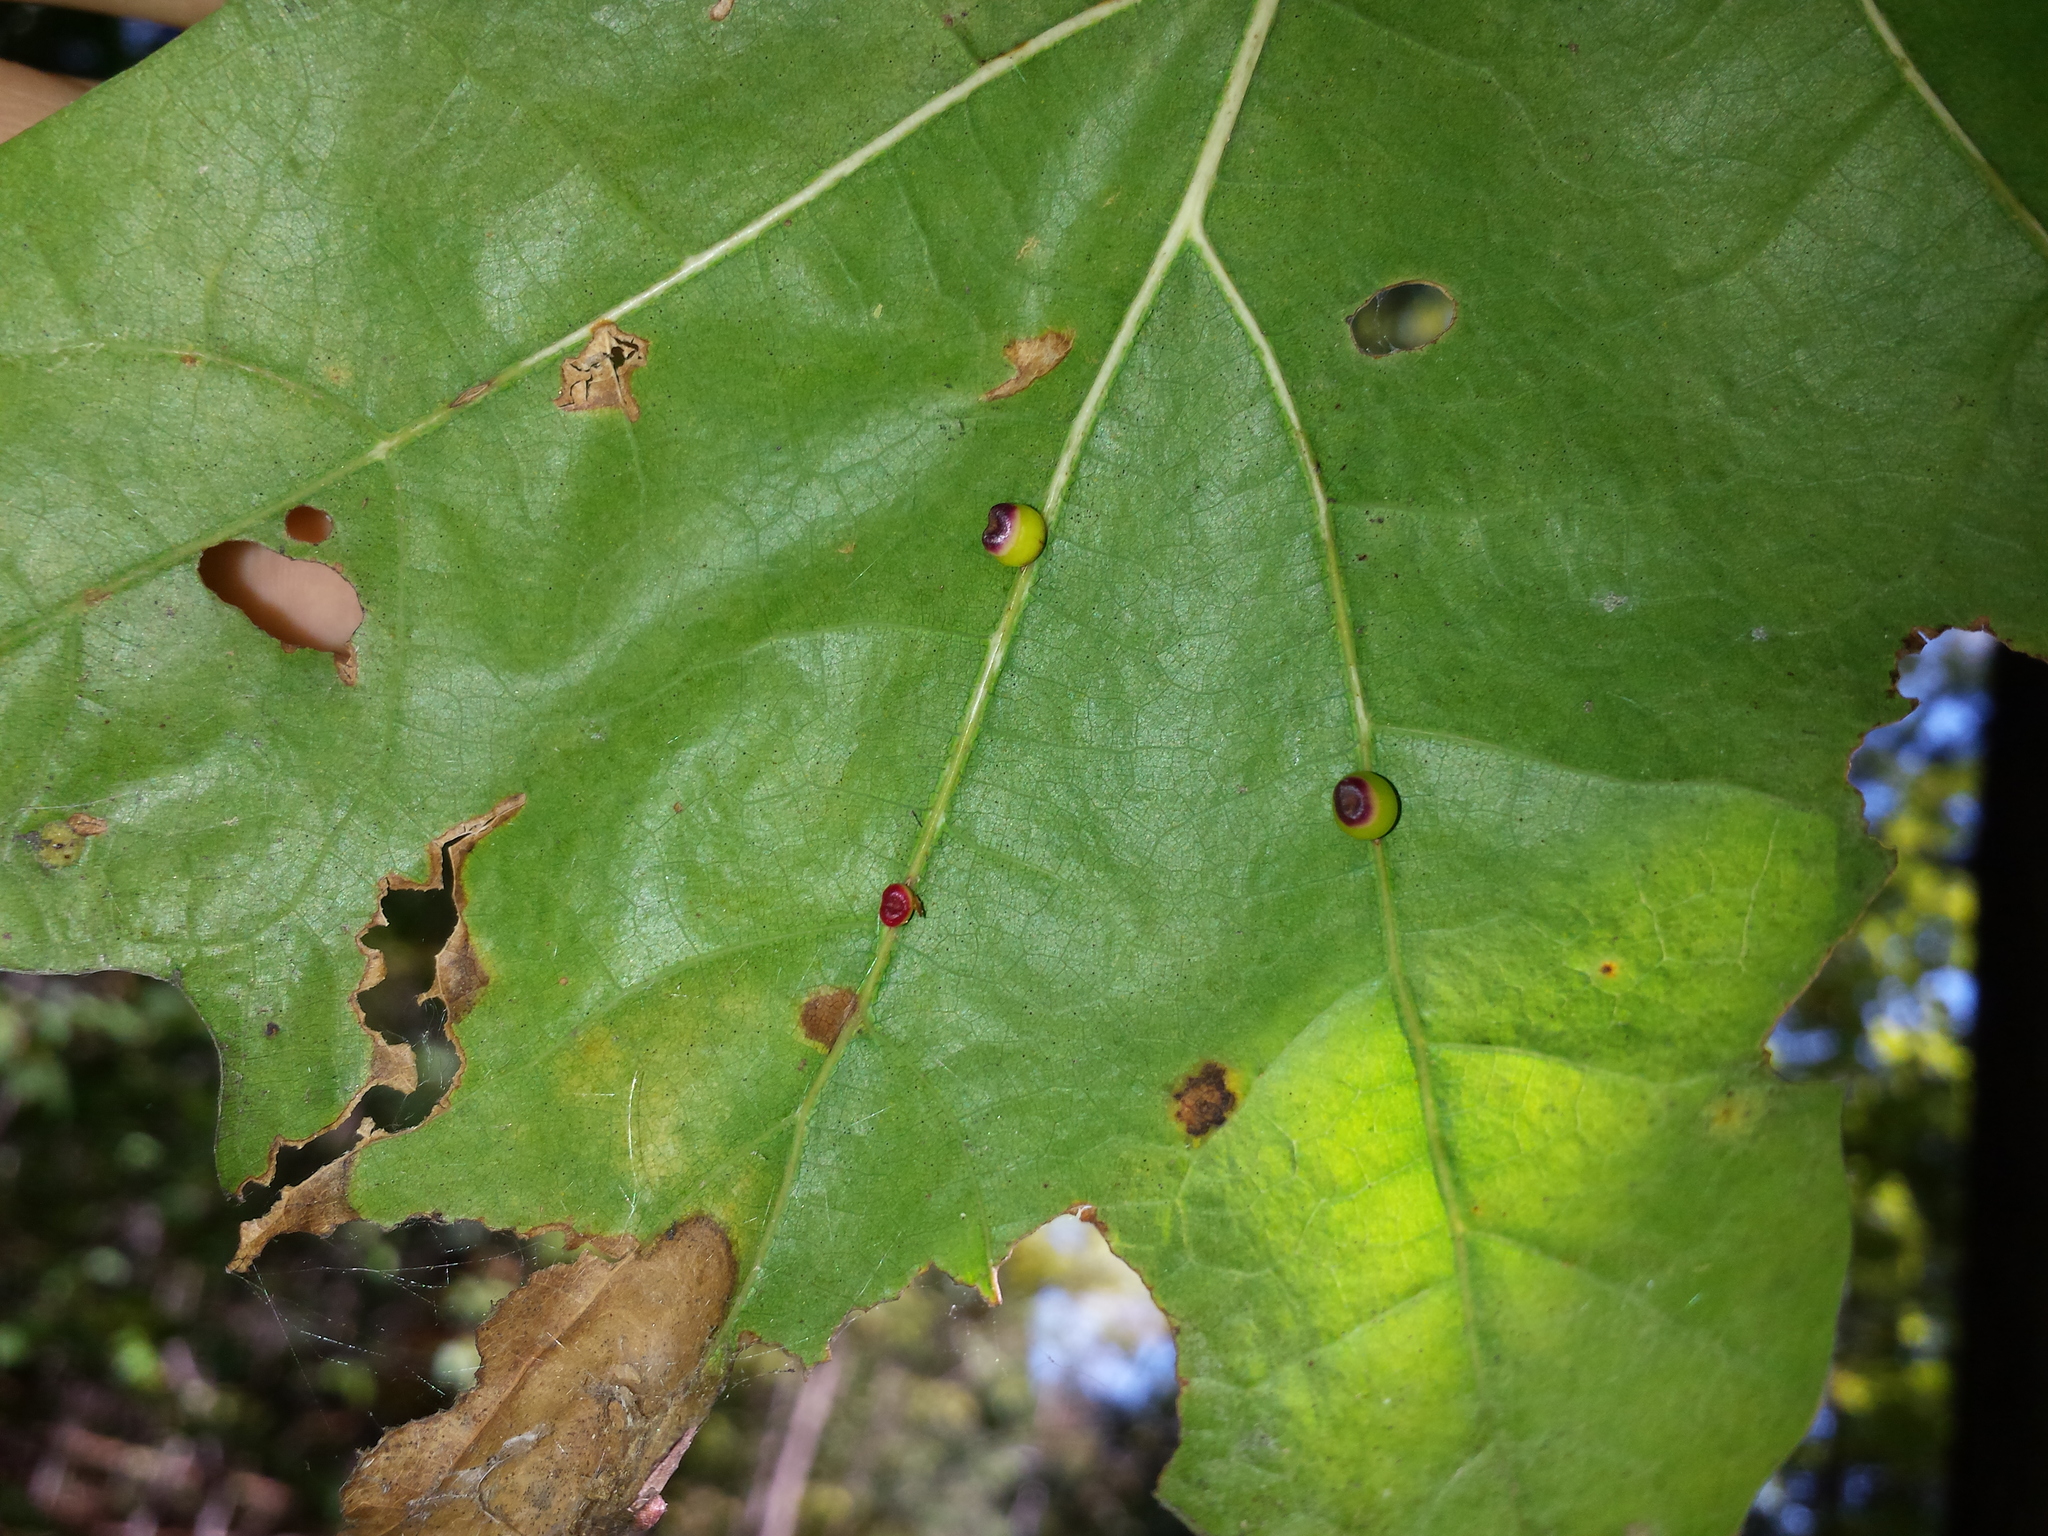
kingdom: Animalia
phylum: Arthropoda
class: Insecta
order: Hymenoptera
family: Cynipidae
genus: Kokkocynips
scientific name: Kokkocynips rileyi
